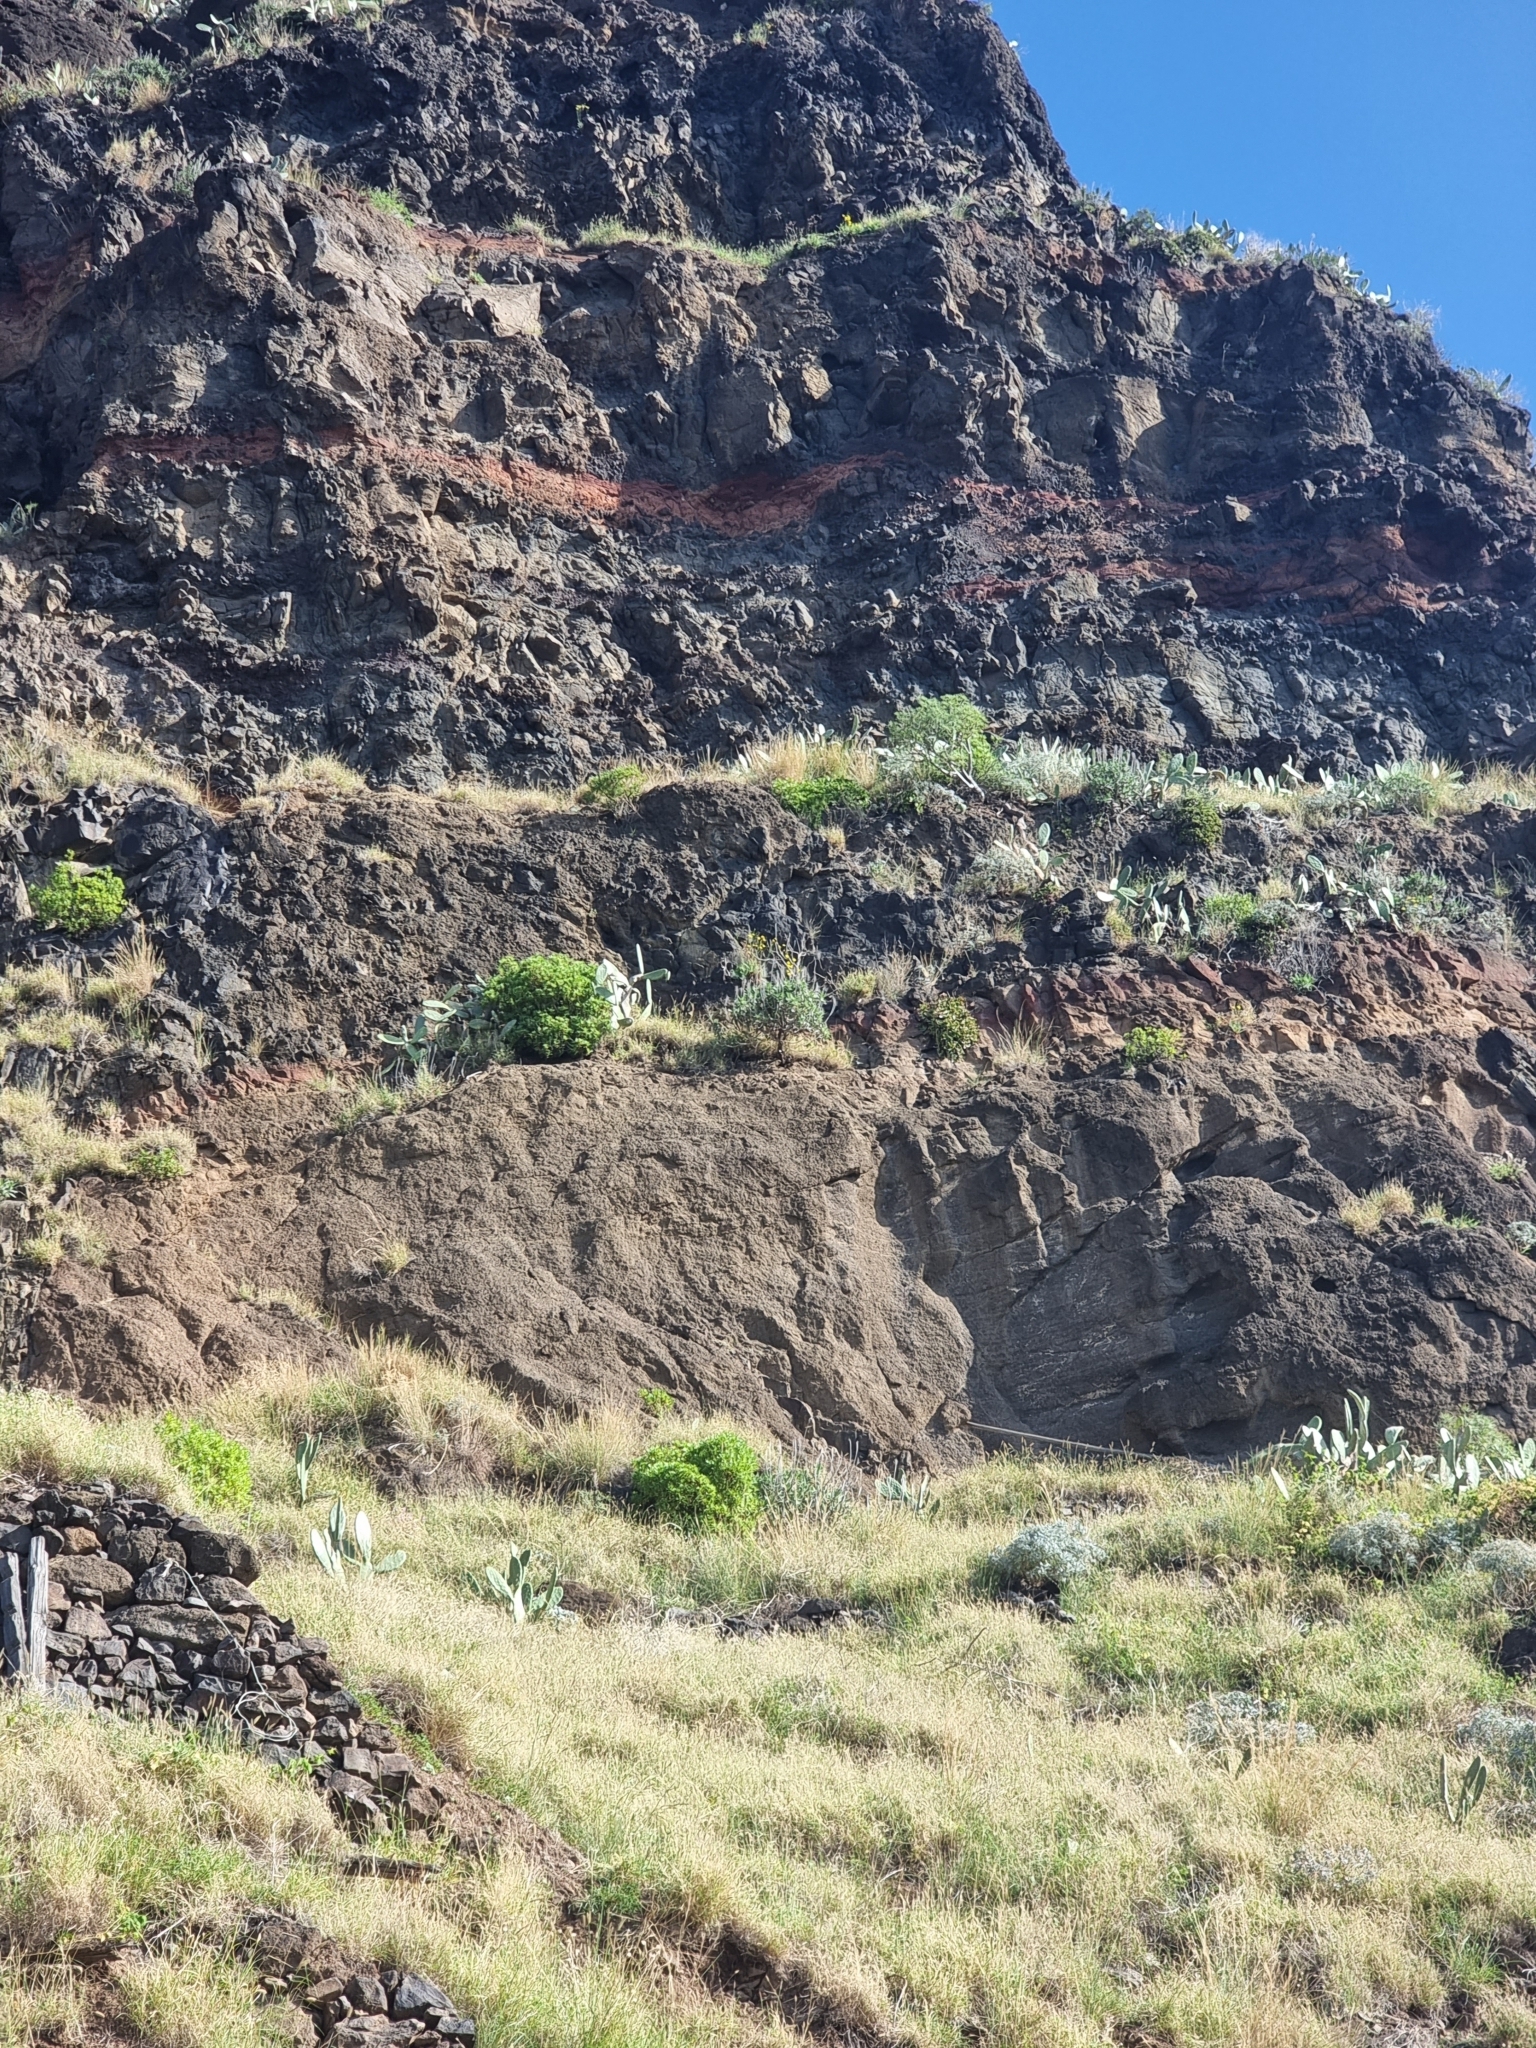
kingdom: Plantae
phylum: Tracheophyta
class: Magnoliopsida
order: Malpighiales
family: Euphorbiaceae
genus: Euphorbia
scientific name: Euphorbia piscatoria
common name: Fish-stunning spurge
